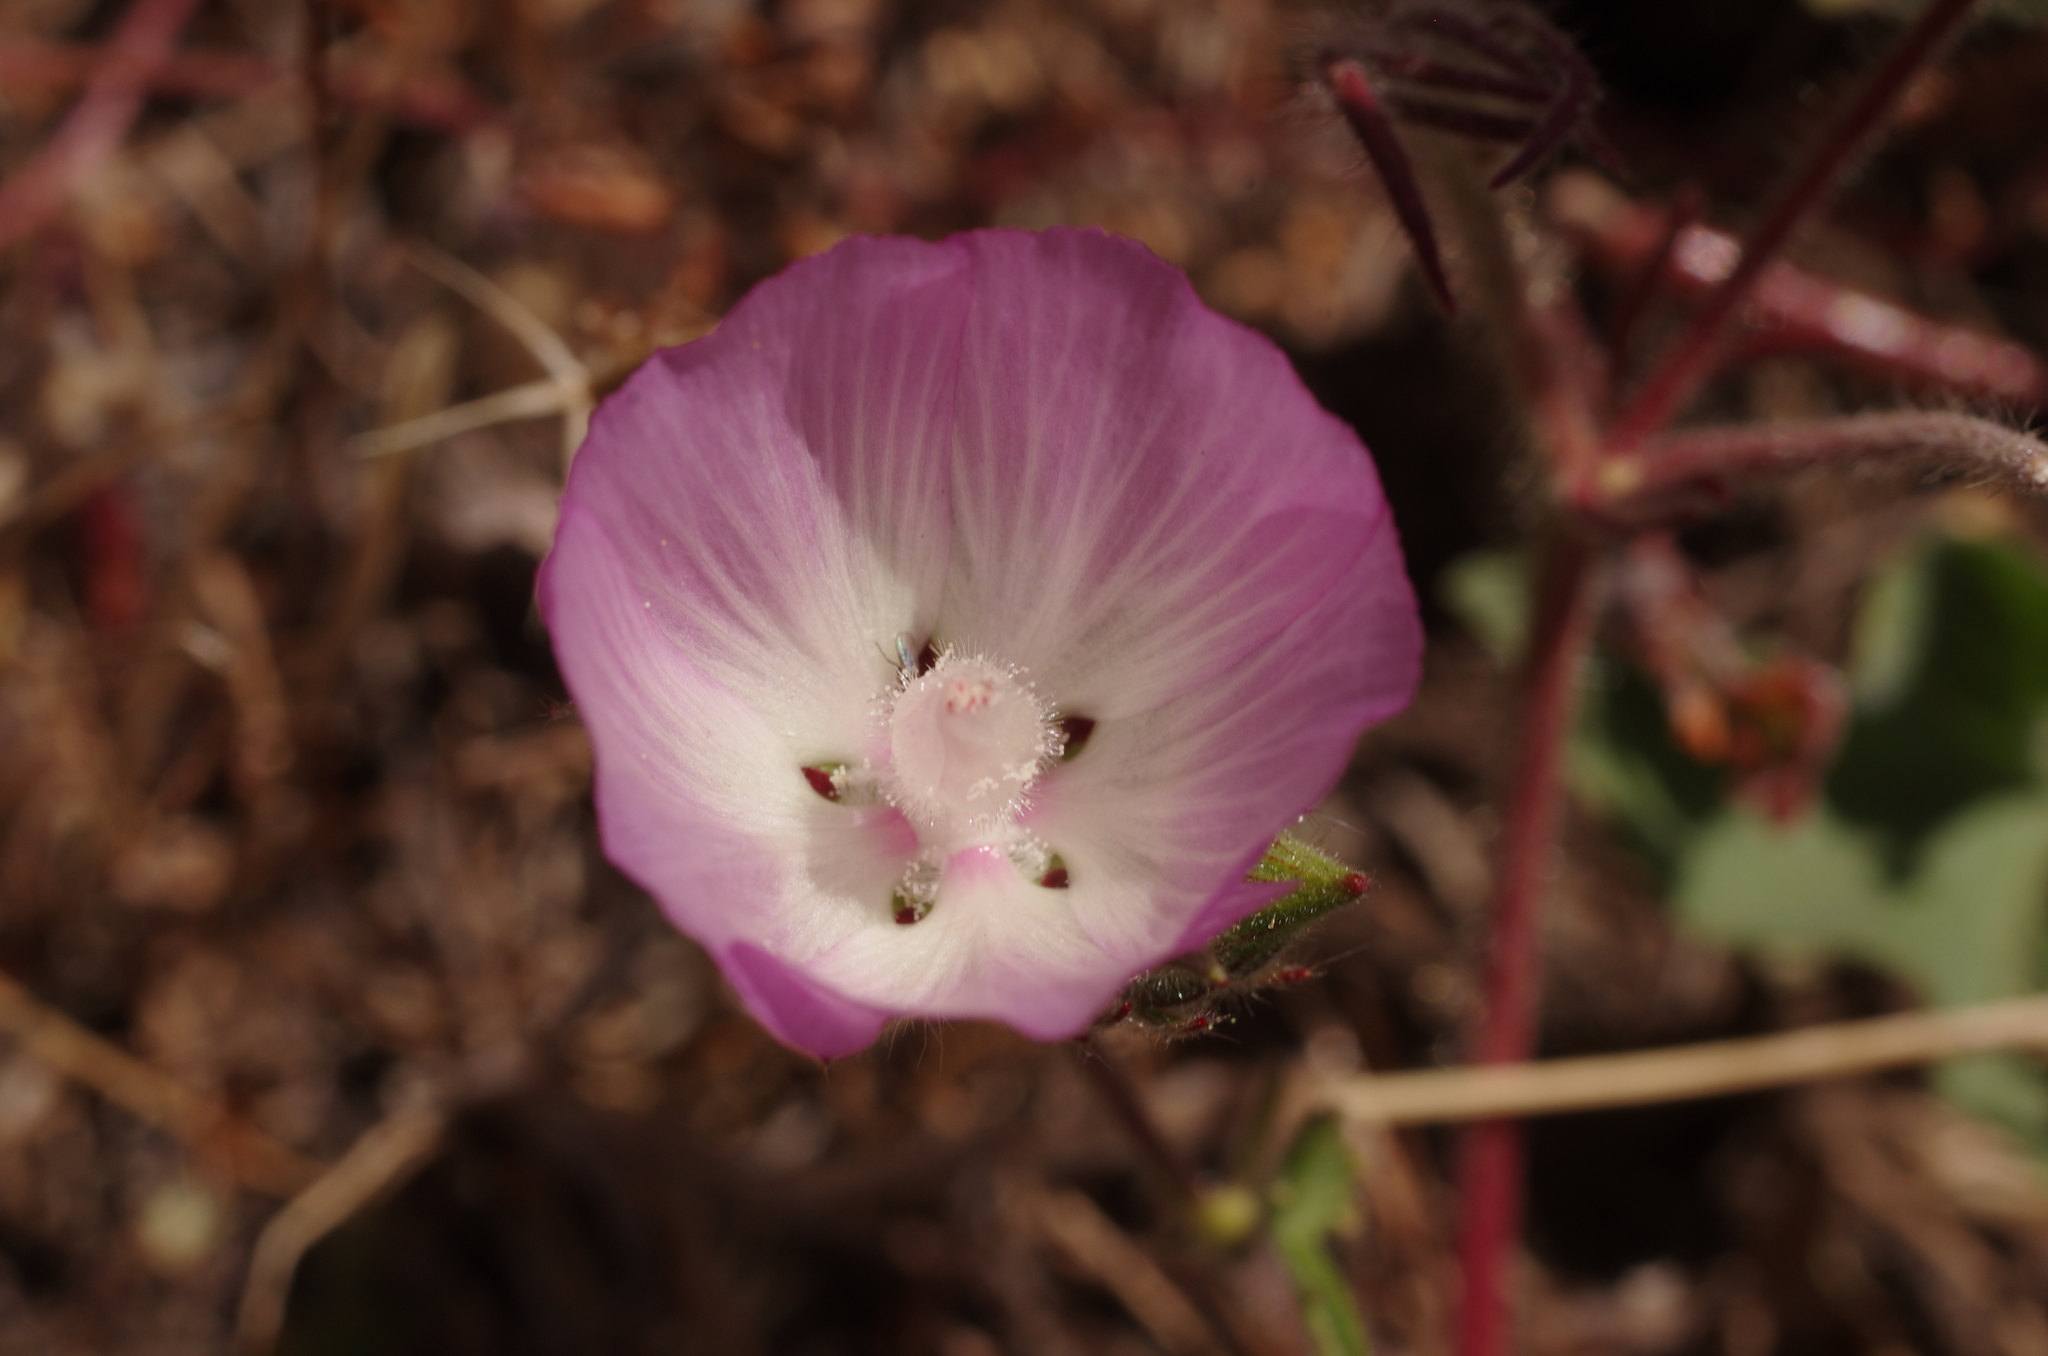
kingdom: Plantae
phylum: Tracheophyta
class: Magnoliopsida
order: Malvales
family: Malvaceae
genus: Sidalcea
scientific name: Sidalcea diploscypha
